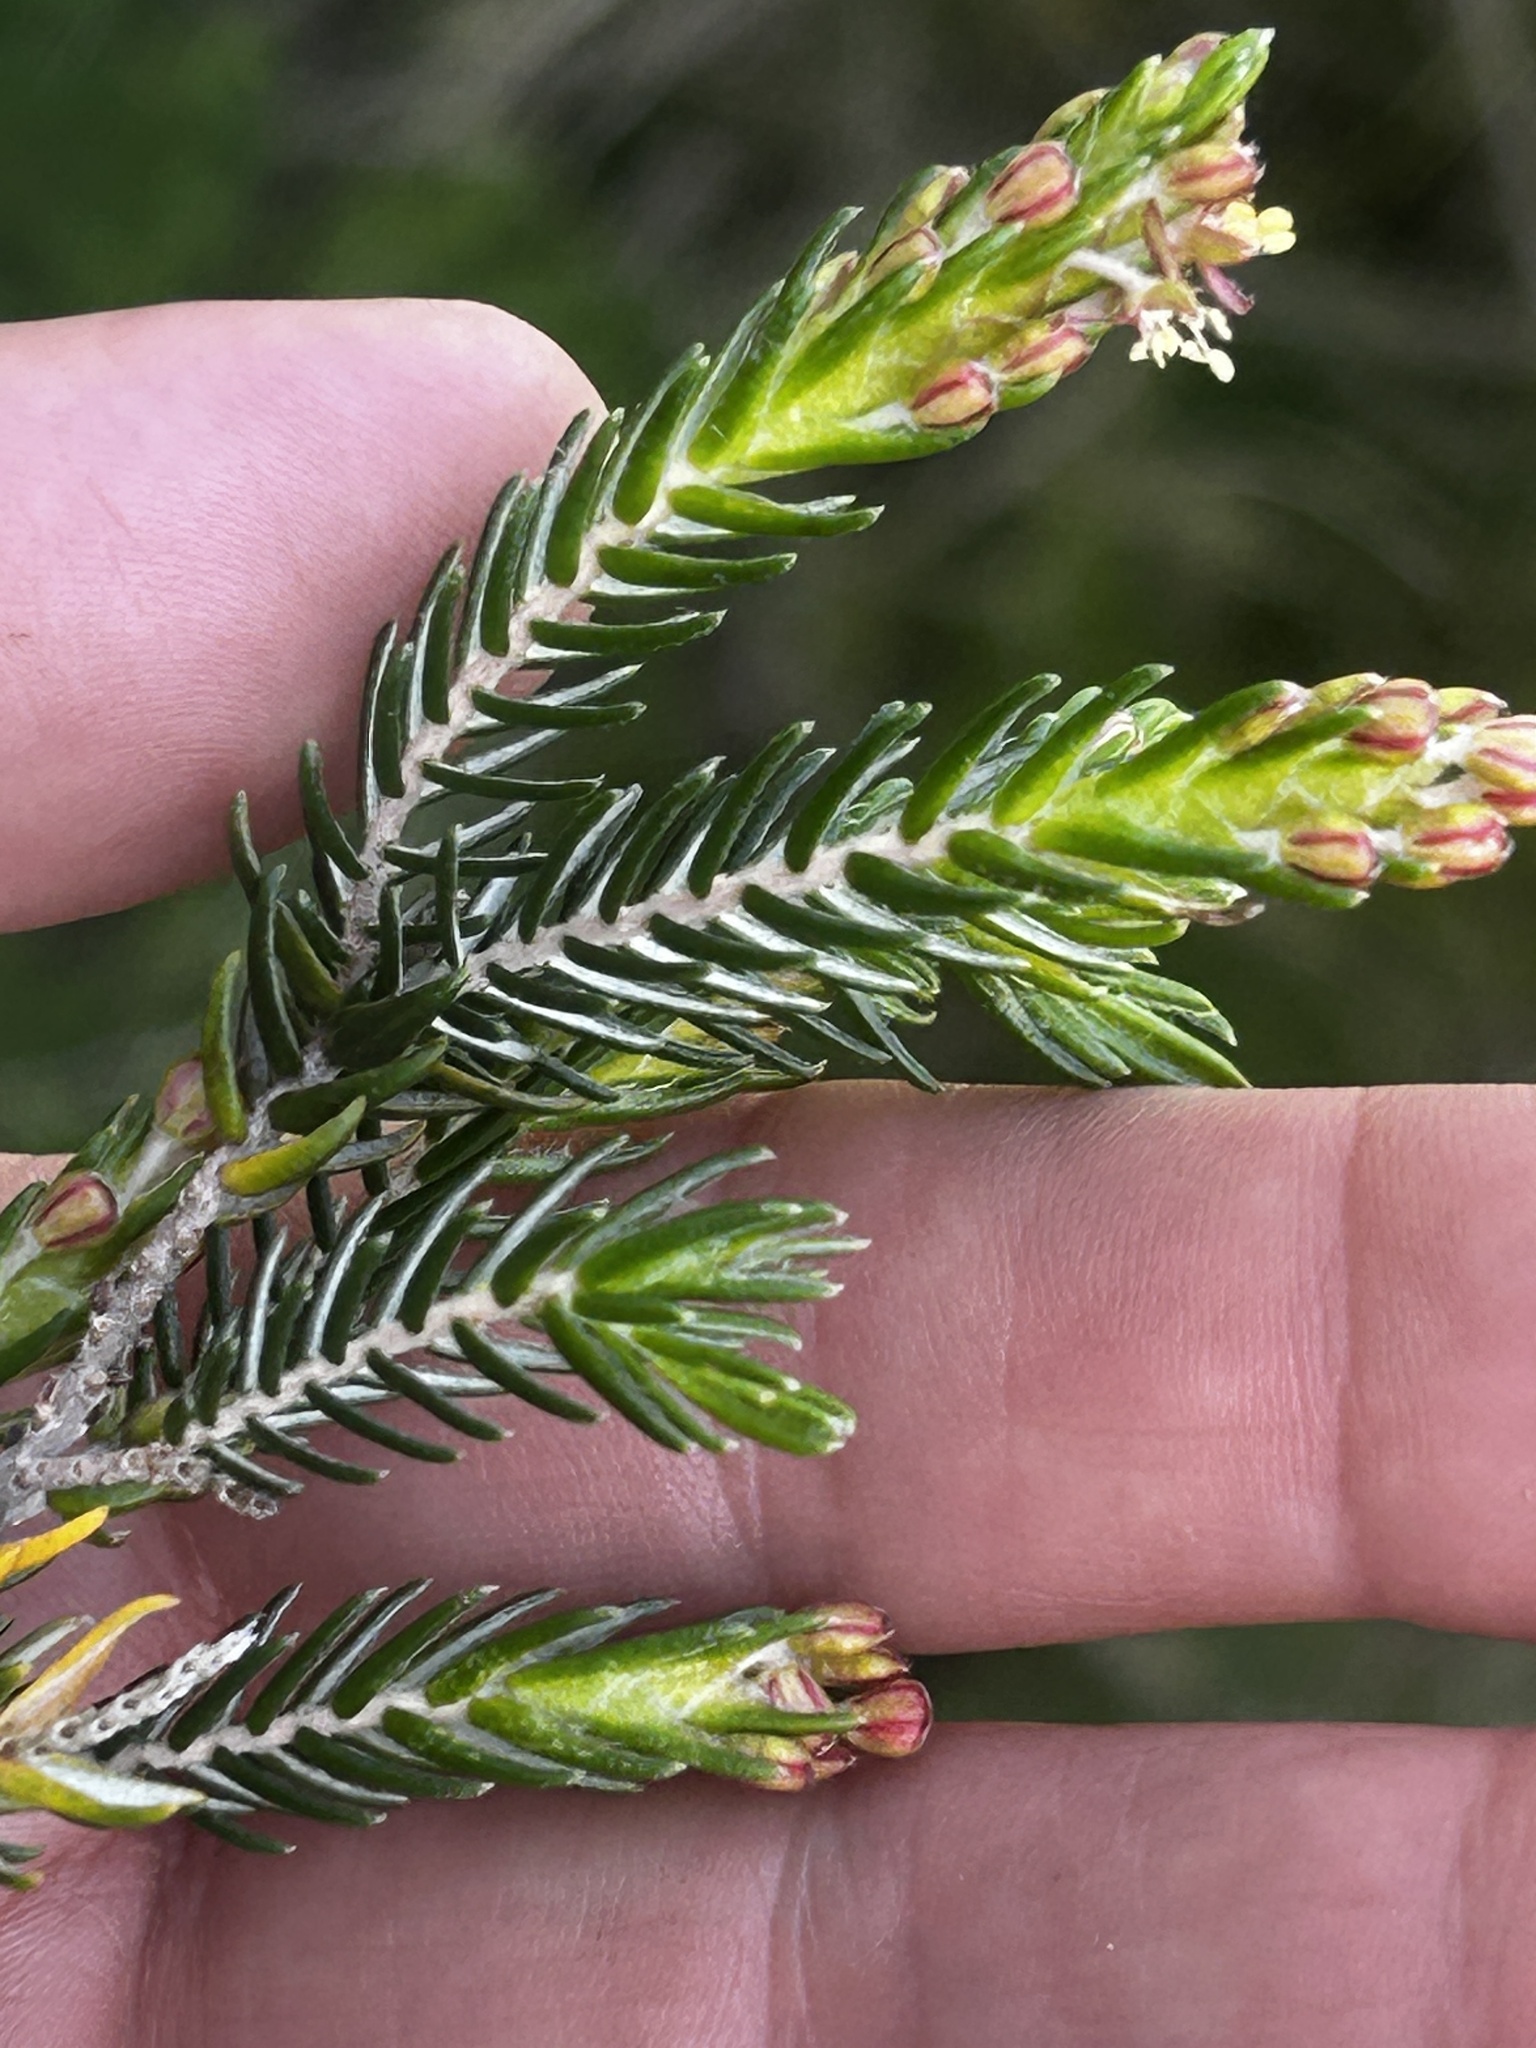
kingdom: Plantae
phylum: Tracheophyta
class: Magnoliopsida
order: Malvales
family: Thymelaeaceae
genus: Passerina
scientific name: Passerina falcifolia
